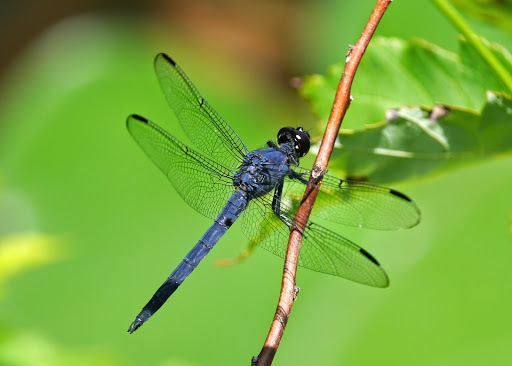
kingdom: Animalia
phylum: Arthropoda
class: Insecta
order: Odonata
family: Libellulidae
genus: Libellula
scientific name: Libellula incesta
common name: Slaty skimmer
